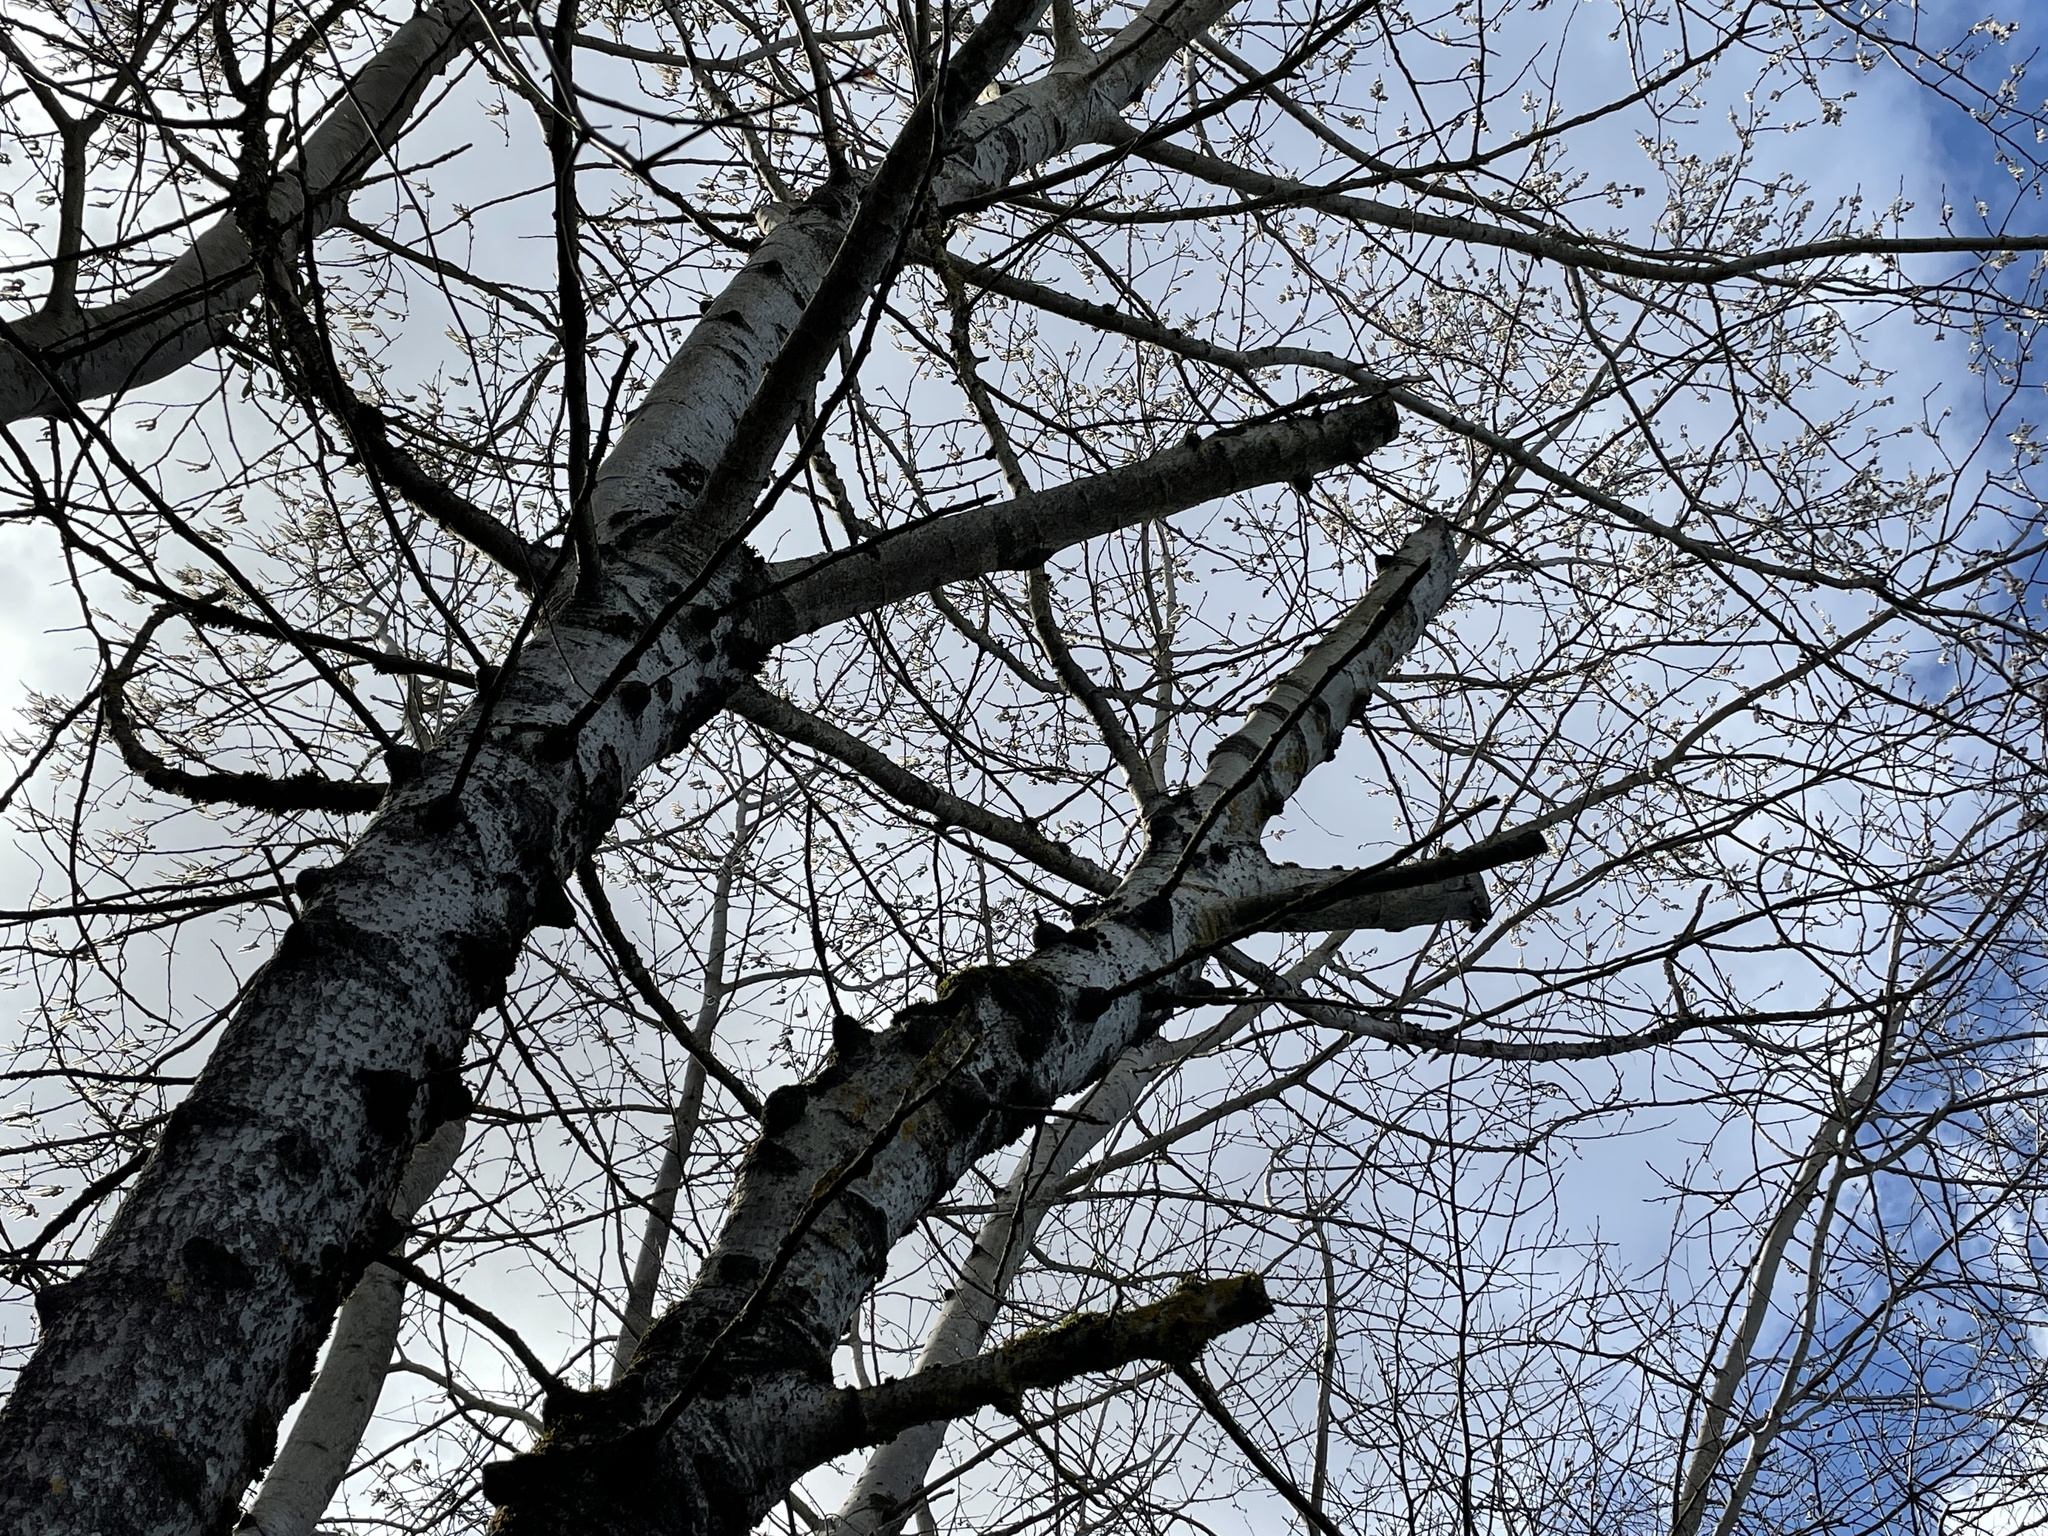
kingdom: Plantae
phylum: Tracheophyta
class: Magnoliopsida
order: Malpighiales
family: Salicaceae
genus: Populus
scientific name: Populus tremula
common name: European aspen
